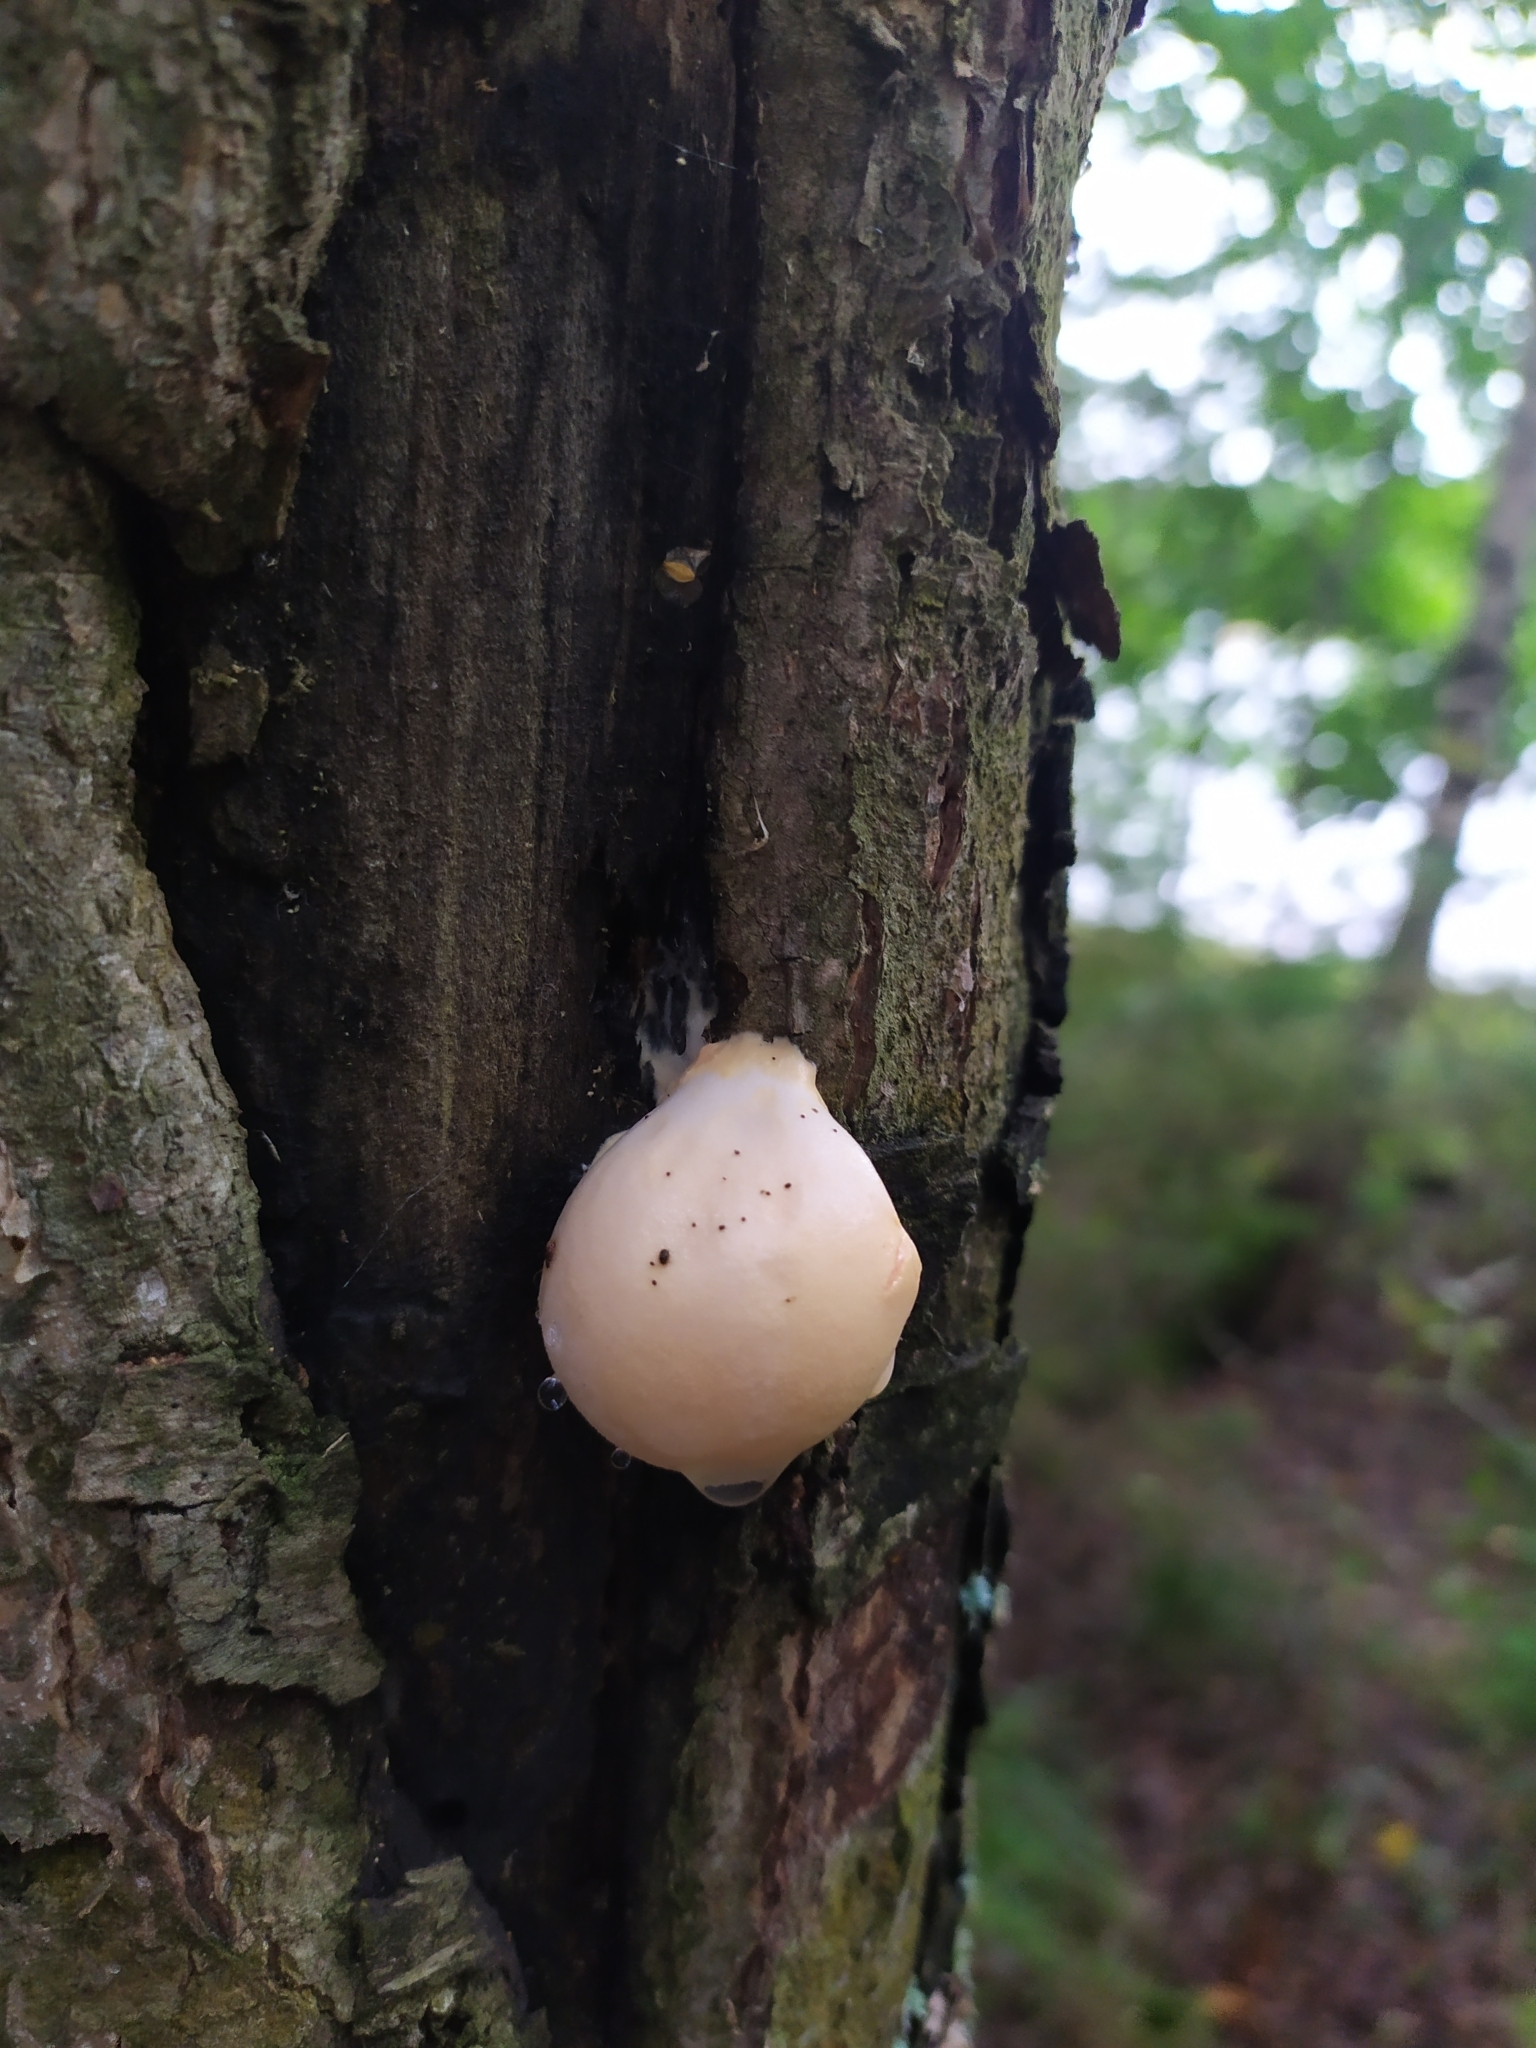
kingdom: Protozoa
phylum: Mycetozoa
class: Myxomycetes
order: Cribrariales
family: Tubiferaceae
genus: Lycogala
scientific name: Lycogala flavofuscum
